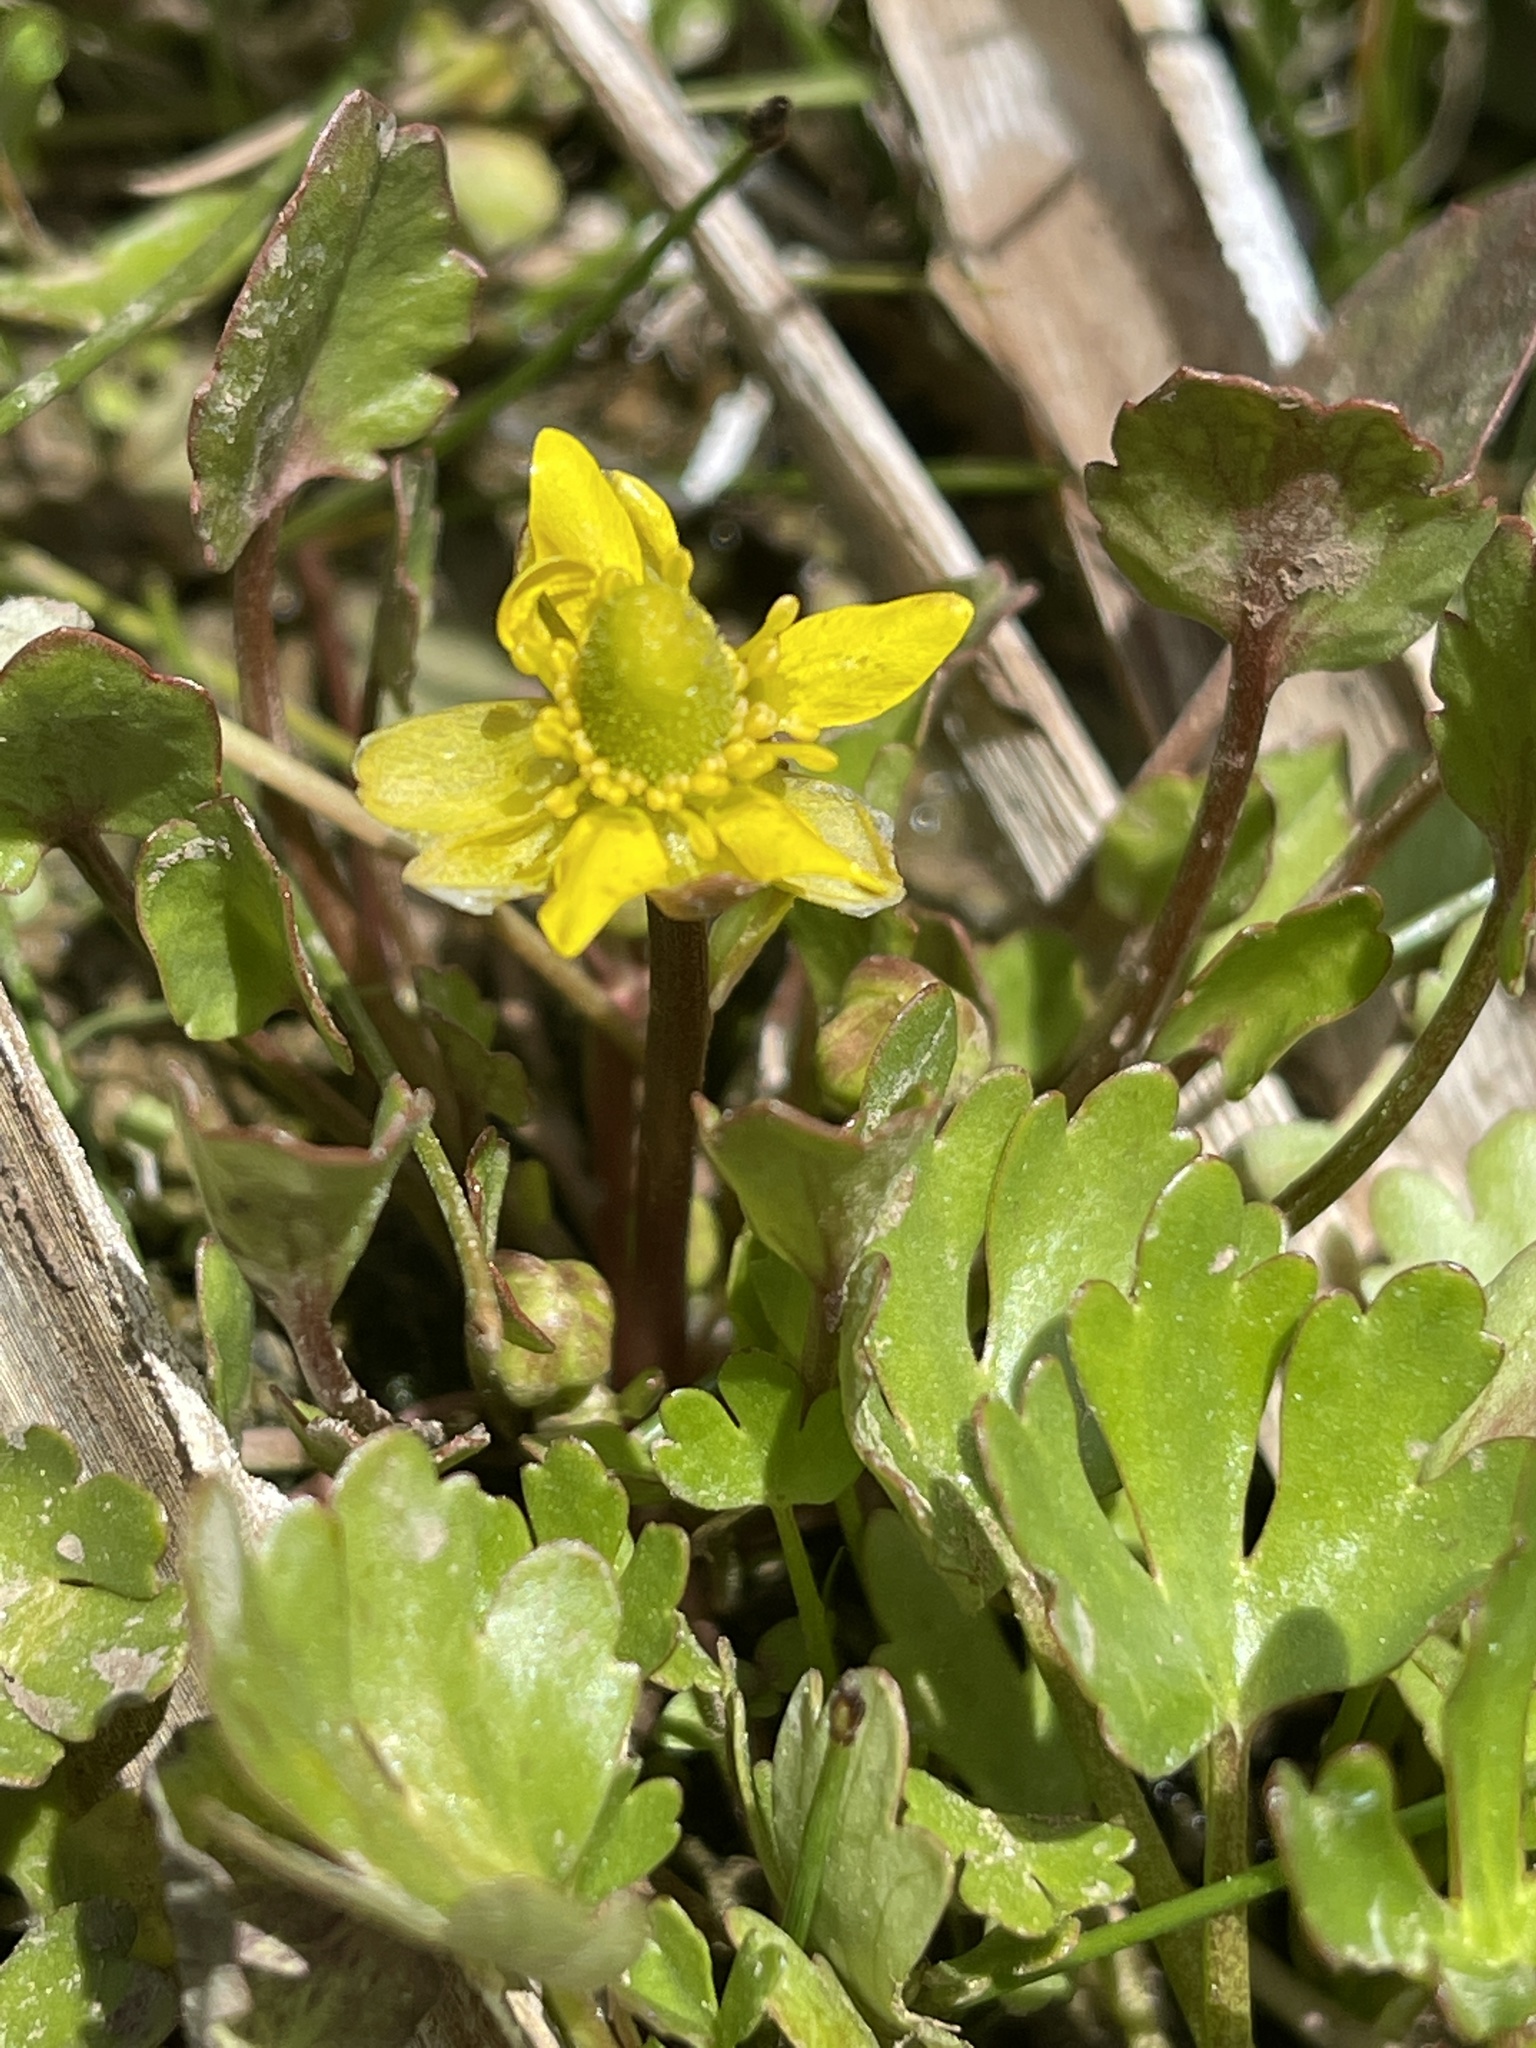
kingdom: Plantae
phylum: Tracheophyta
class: Magnoliopsida
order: Ranunculales
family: Ranunculaceae
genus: Halerpestes
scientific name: Halerpestes cymbalaria
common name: Seaside crowfoot
